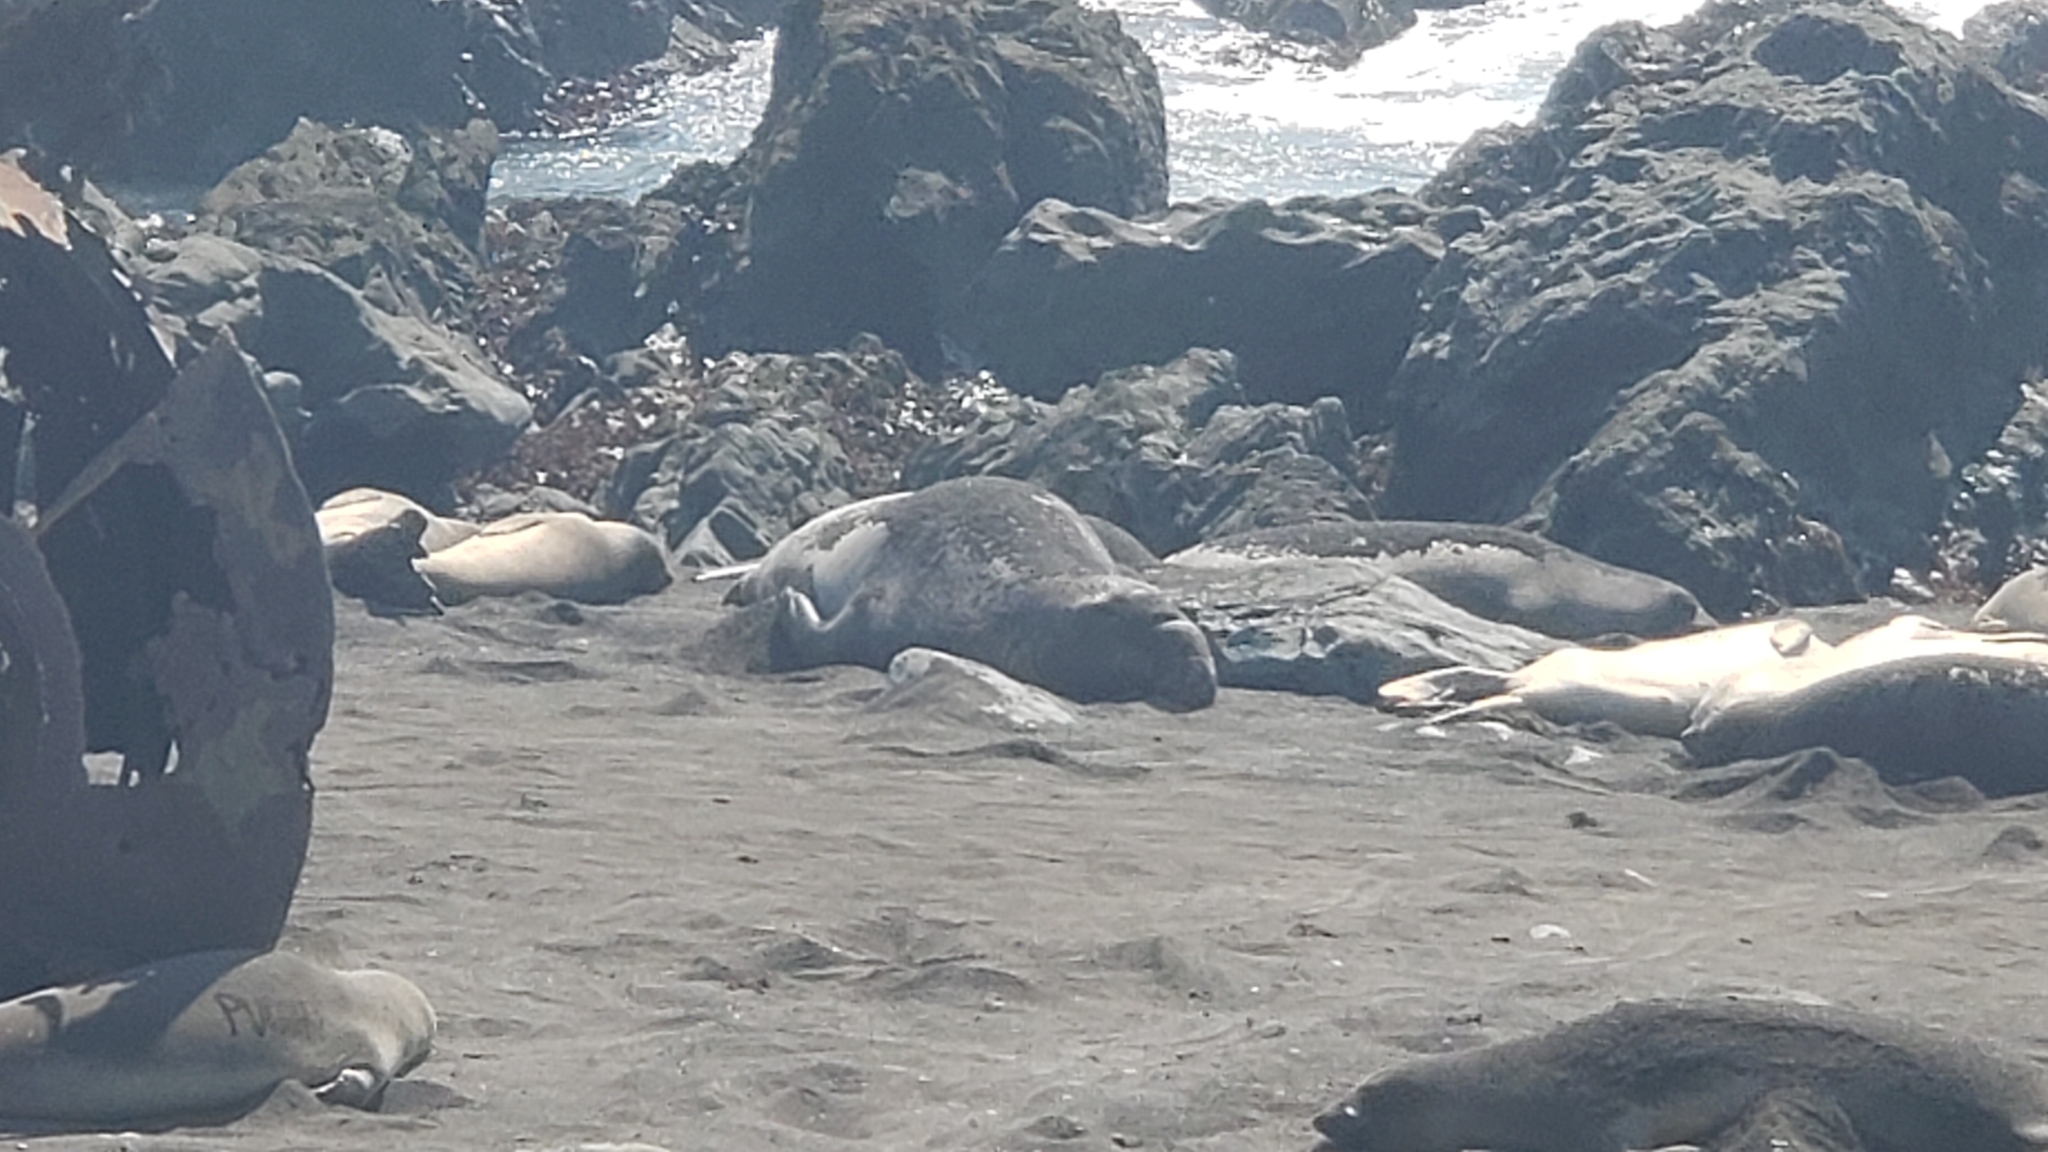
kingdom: Animalia
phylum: Chordata
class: Mammalia
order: Carnivora
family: Phocidae
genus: Mirounga
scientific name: Mirounga angustirostris
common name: Northern elephant seal
